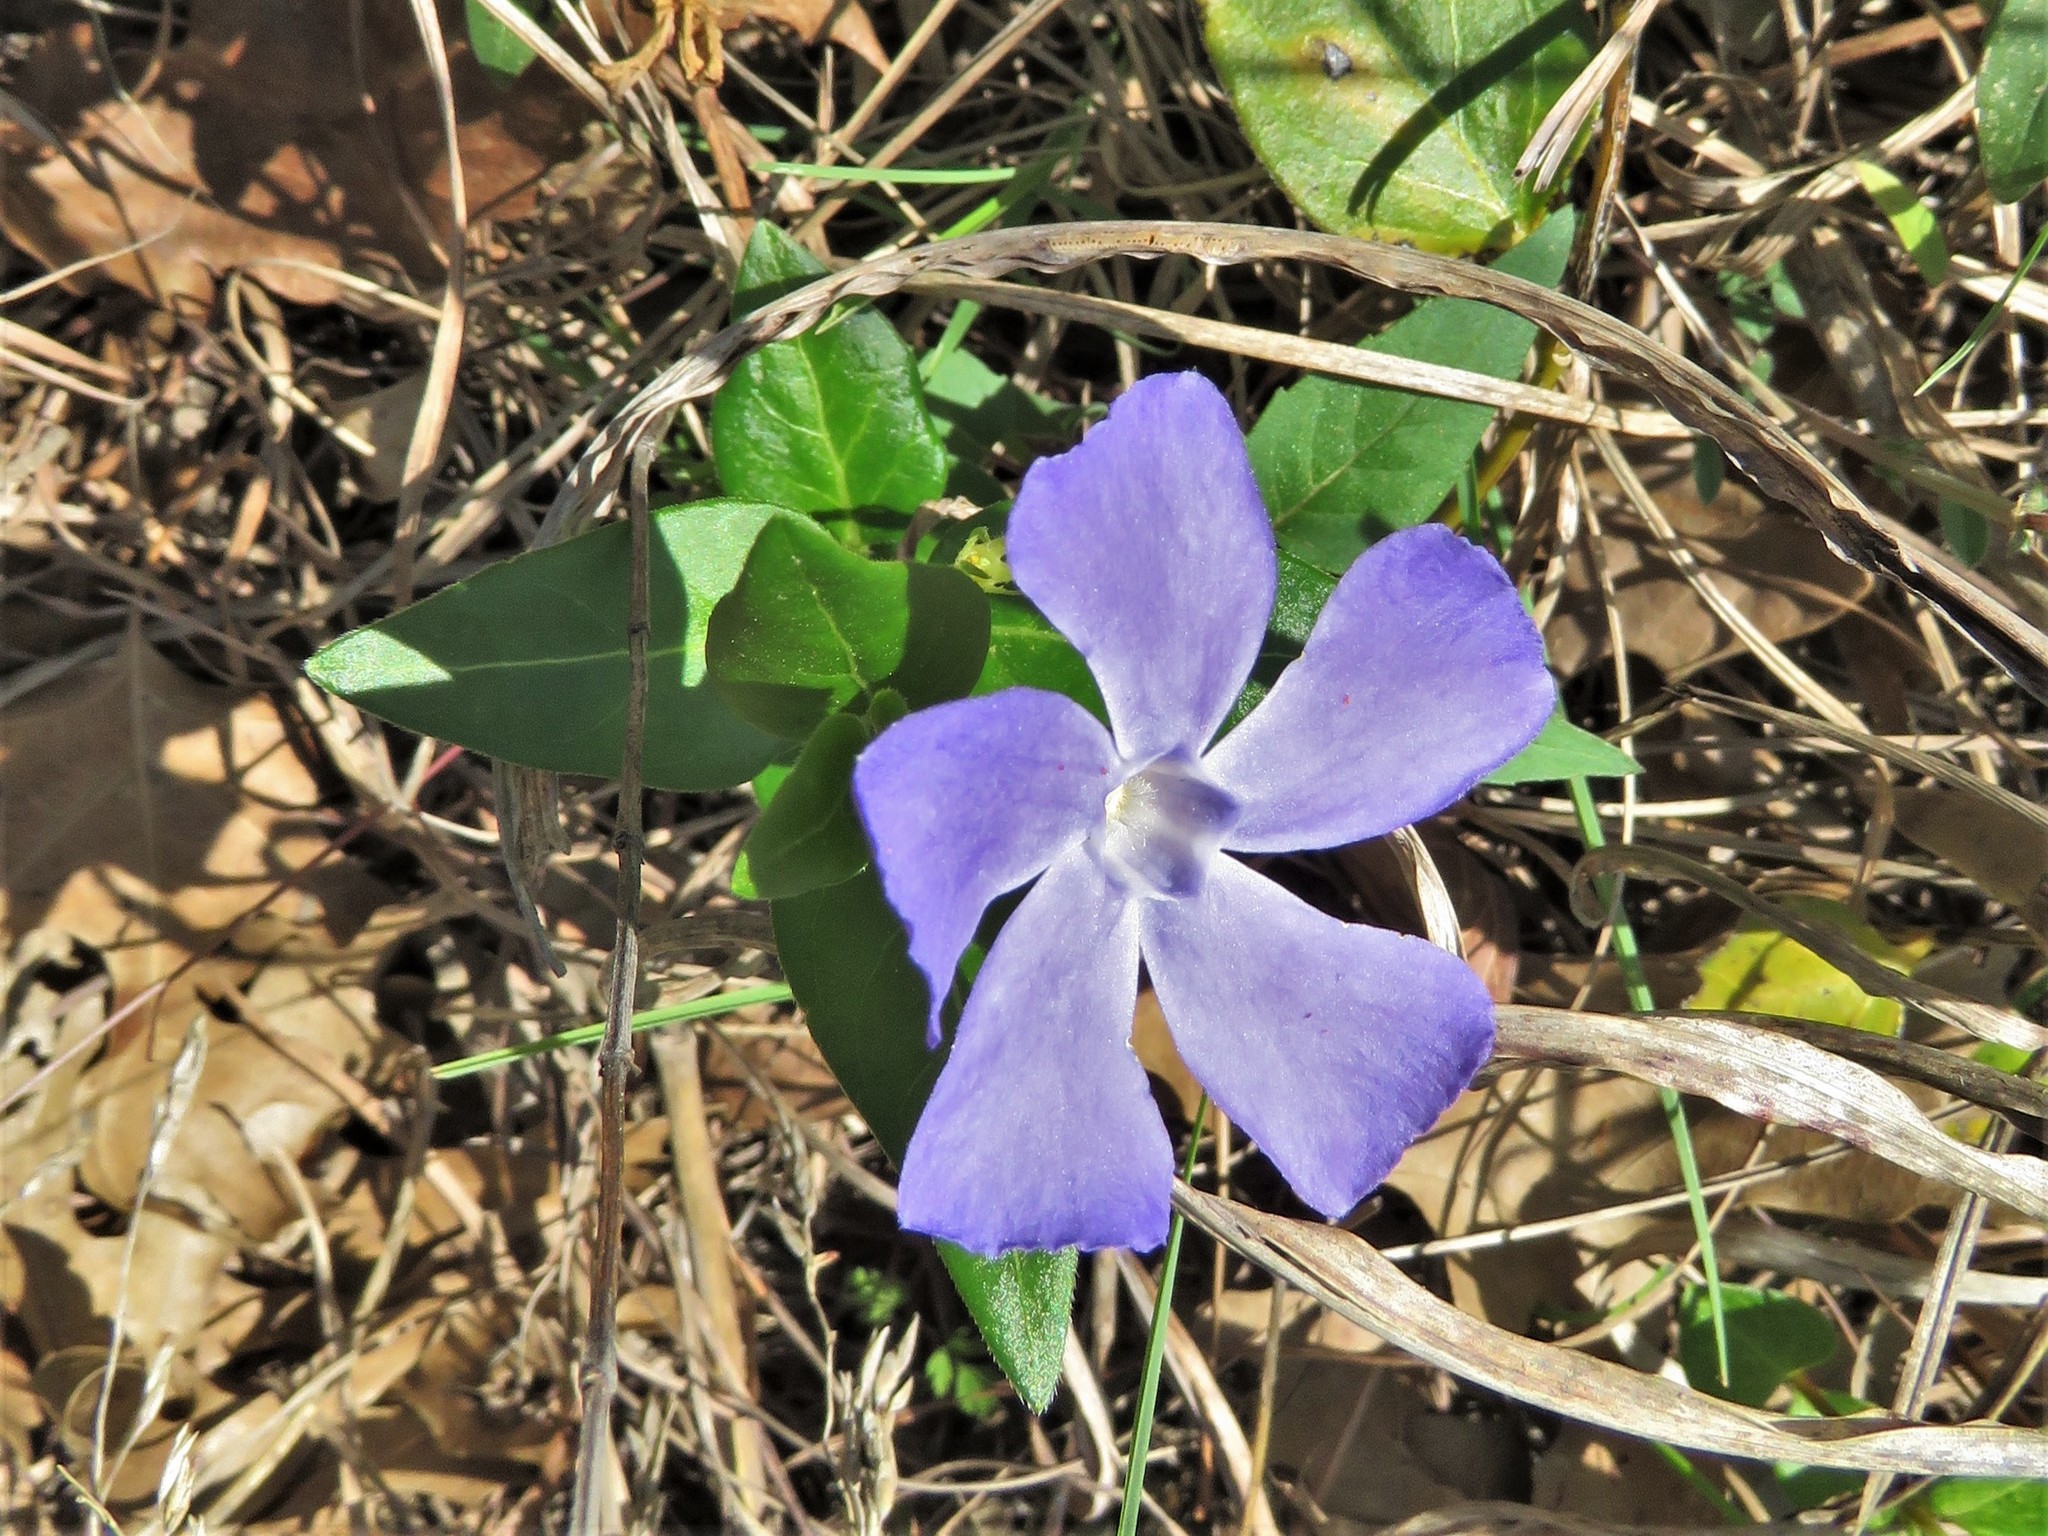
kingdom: Plantae
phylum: Tracheophyta
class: Magnoliopsida
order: Gentianales
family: Apocynaceae
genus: Vinca
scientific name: Vinca major
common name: Greater periwinkle
